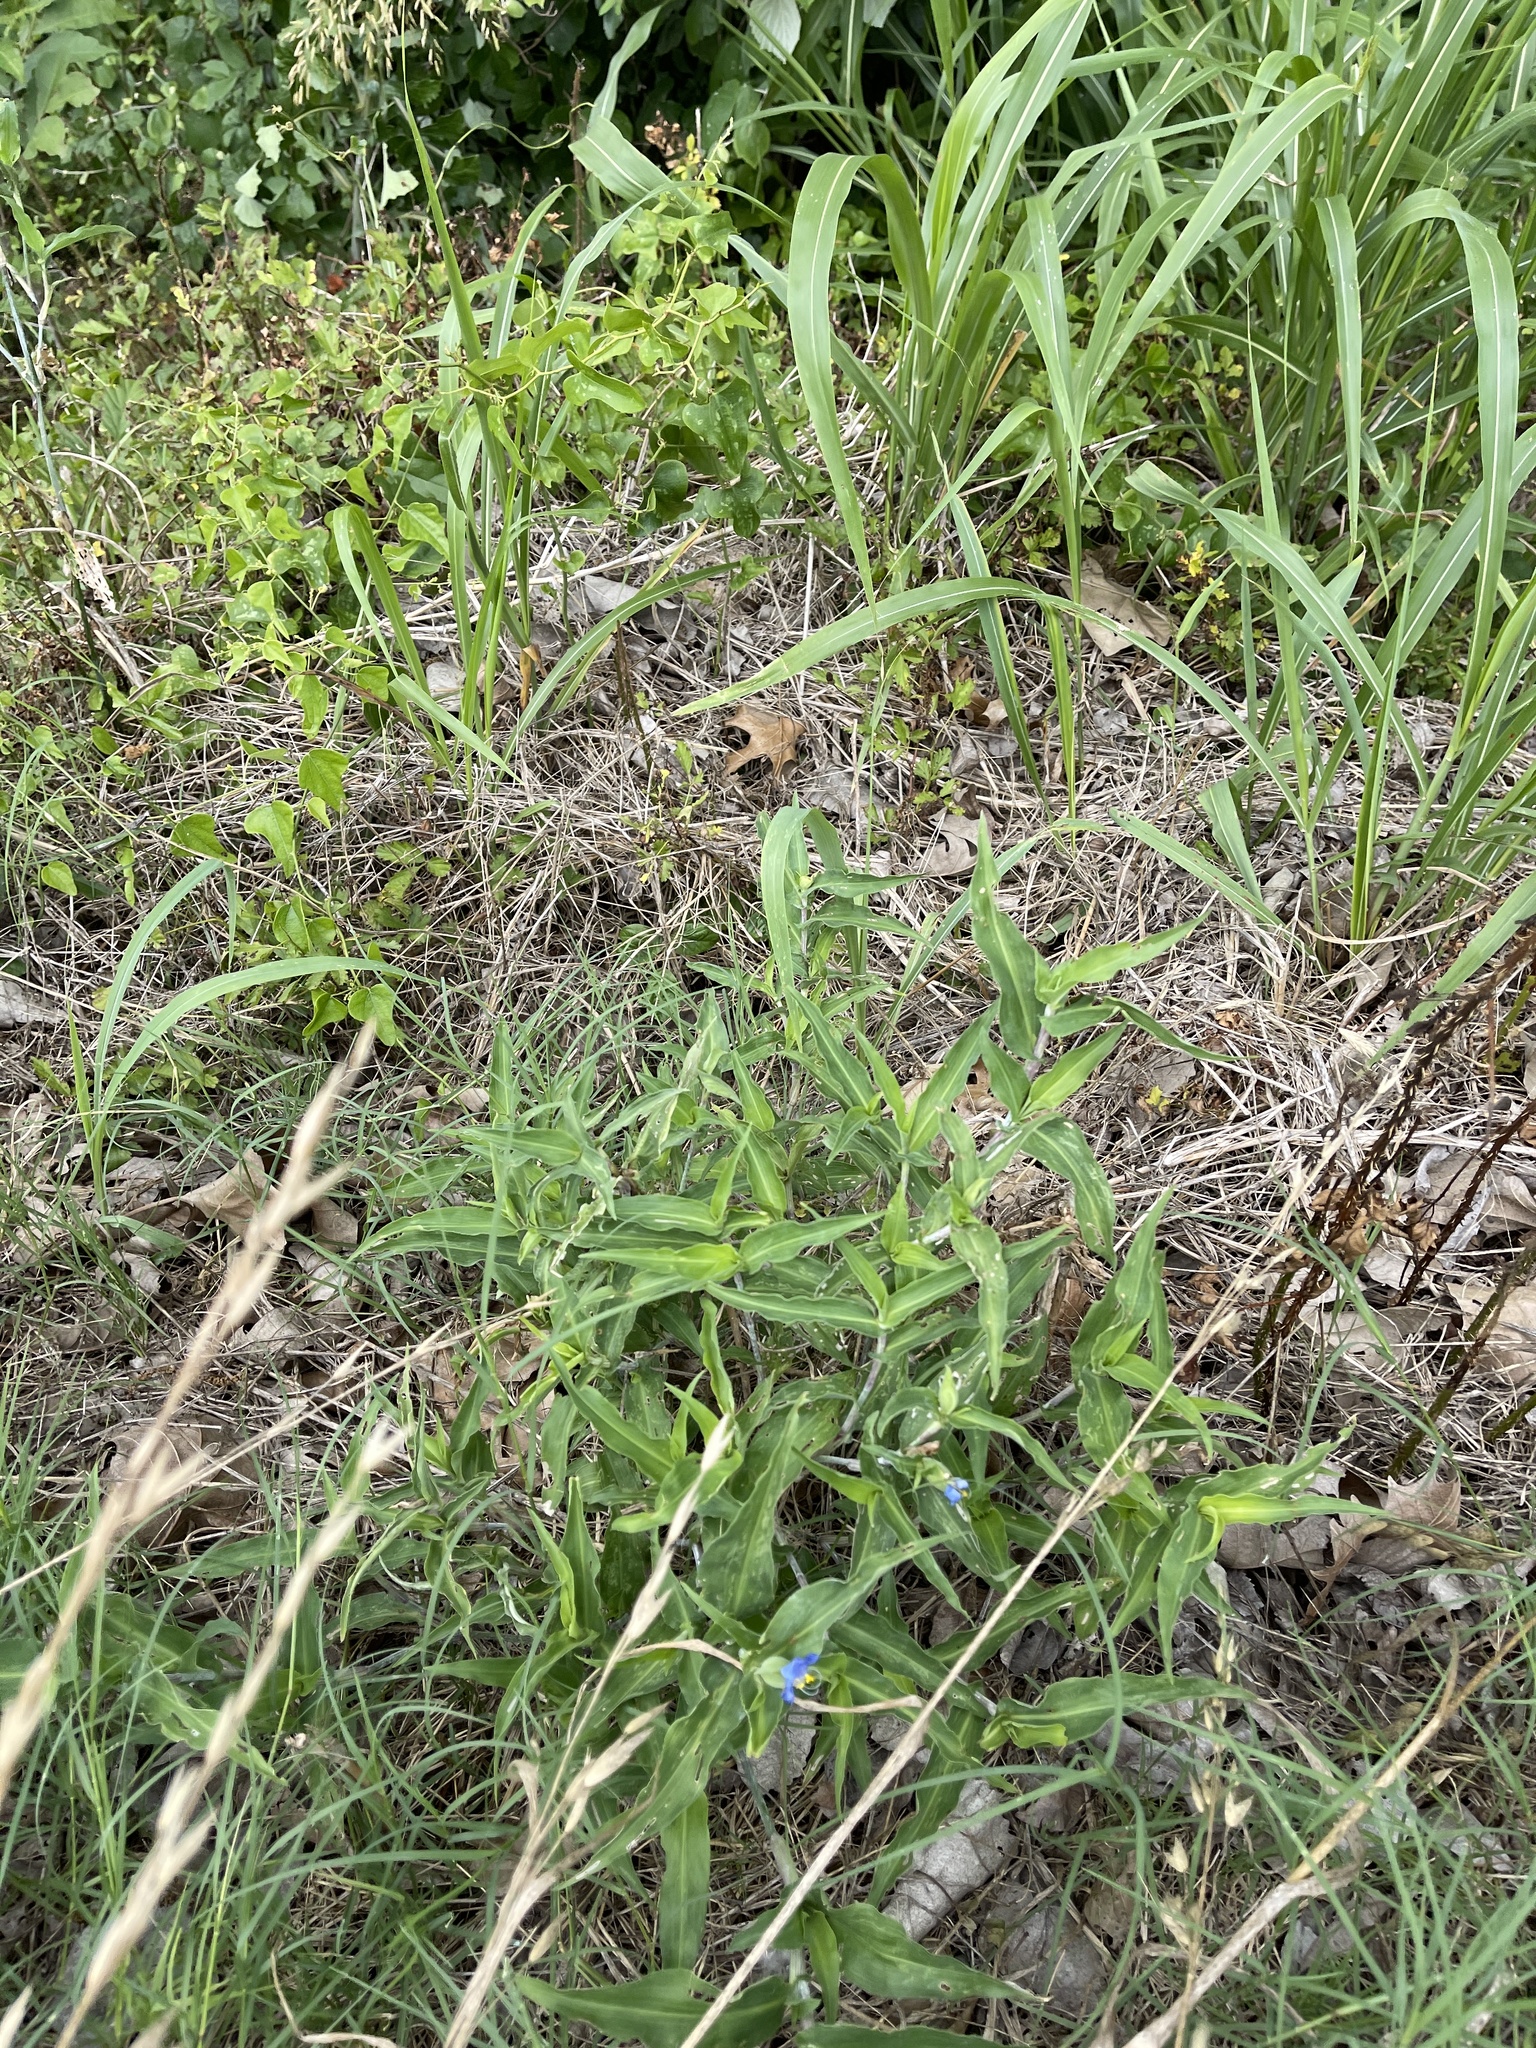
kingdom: Plantae
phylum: Tracheophyta
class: Liliopsida
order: Commelinales
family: Commelinaceae
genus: Commelina
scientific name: Commelina erecta
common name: Blousel blommetjie
